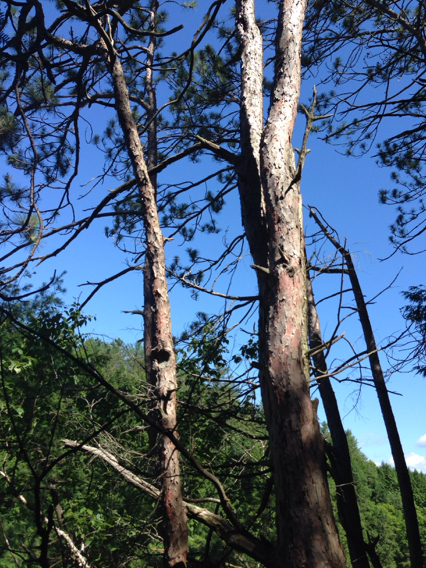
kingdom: Plantae
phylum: Tracheophyta
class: Pinopsida
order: Pinales
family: Pinaceae
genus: Pinus
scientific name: Pinus resinosa
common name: Norway pine
